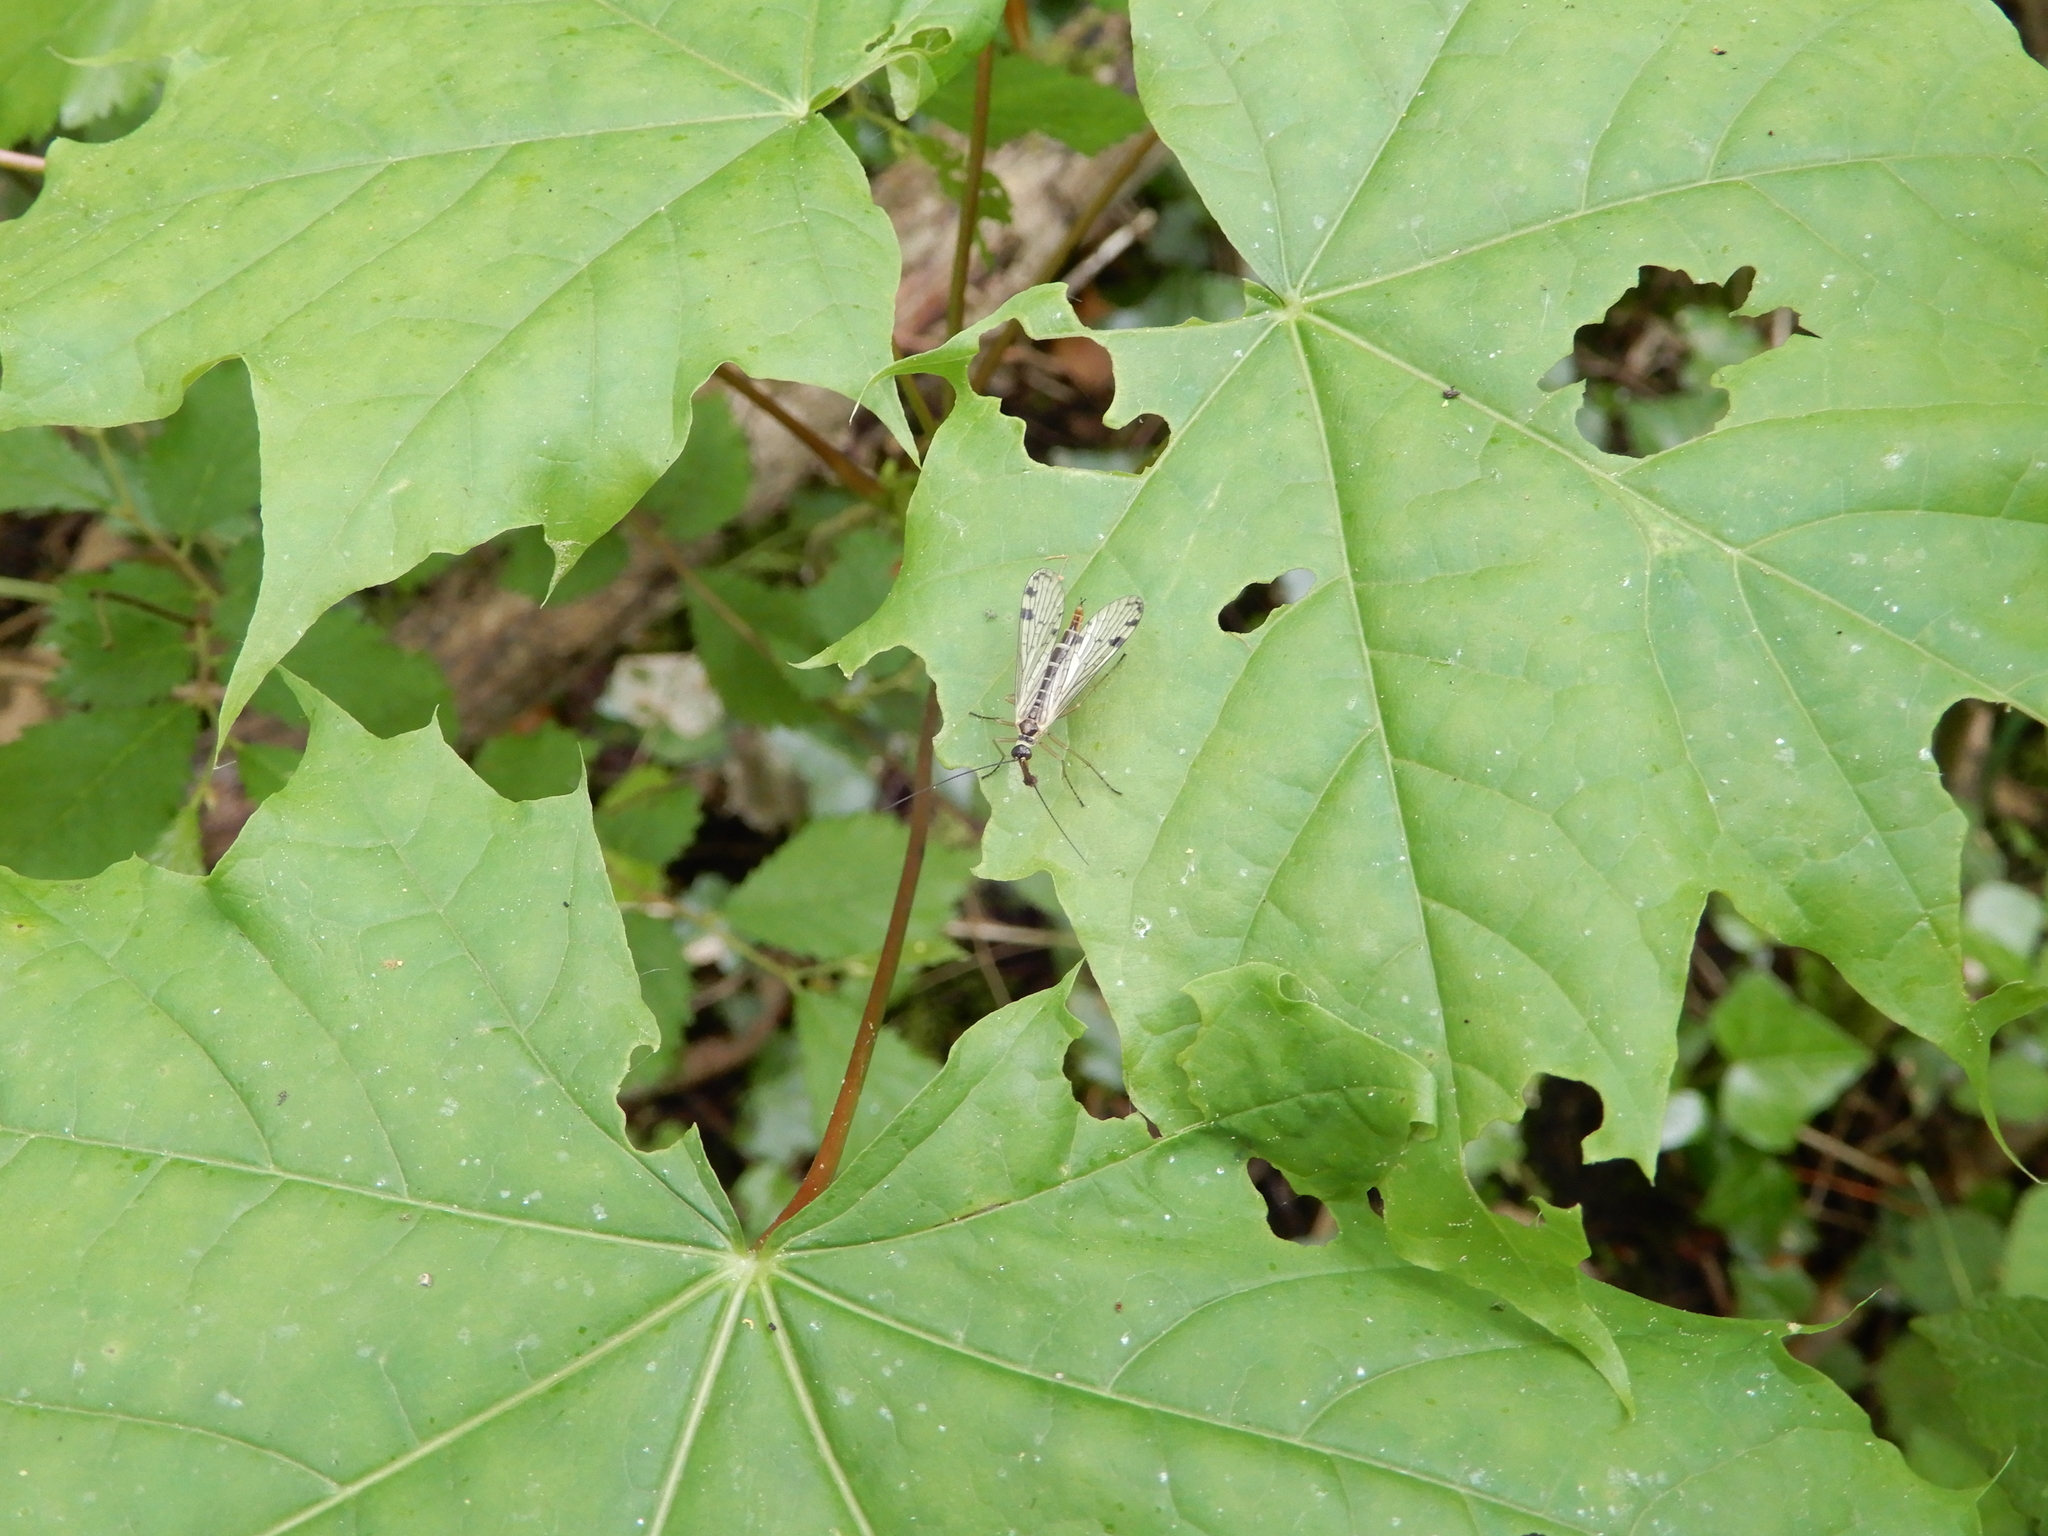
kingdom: Plantae
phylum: Tracheophyta
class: Magnoliopsida
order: Sapindales
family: Sapindaceae
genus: Acer
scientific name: Acer platanoides
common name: Norway maple
